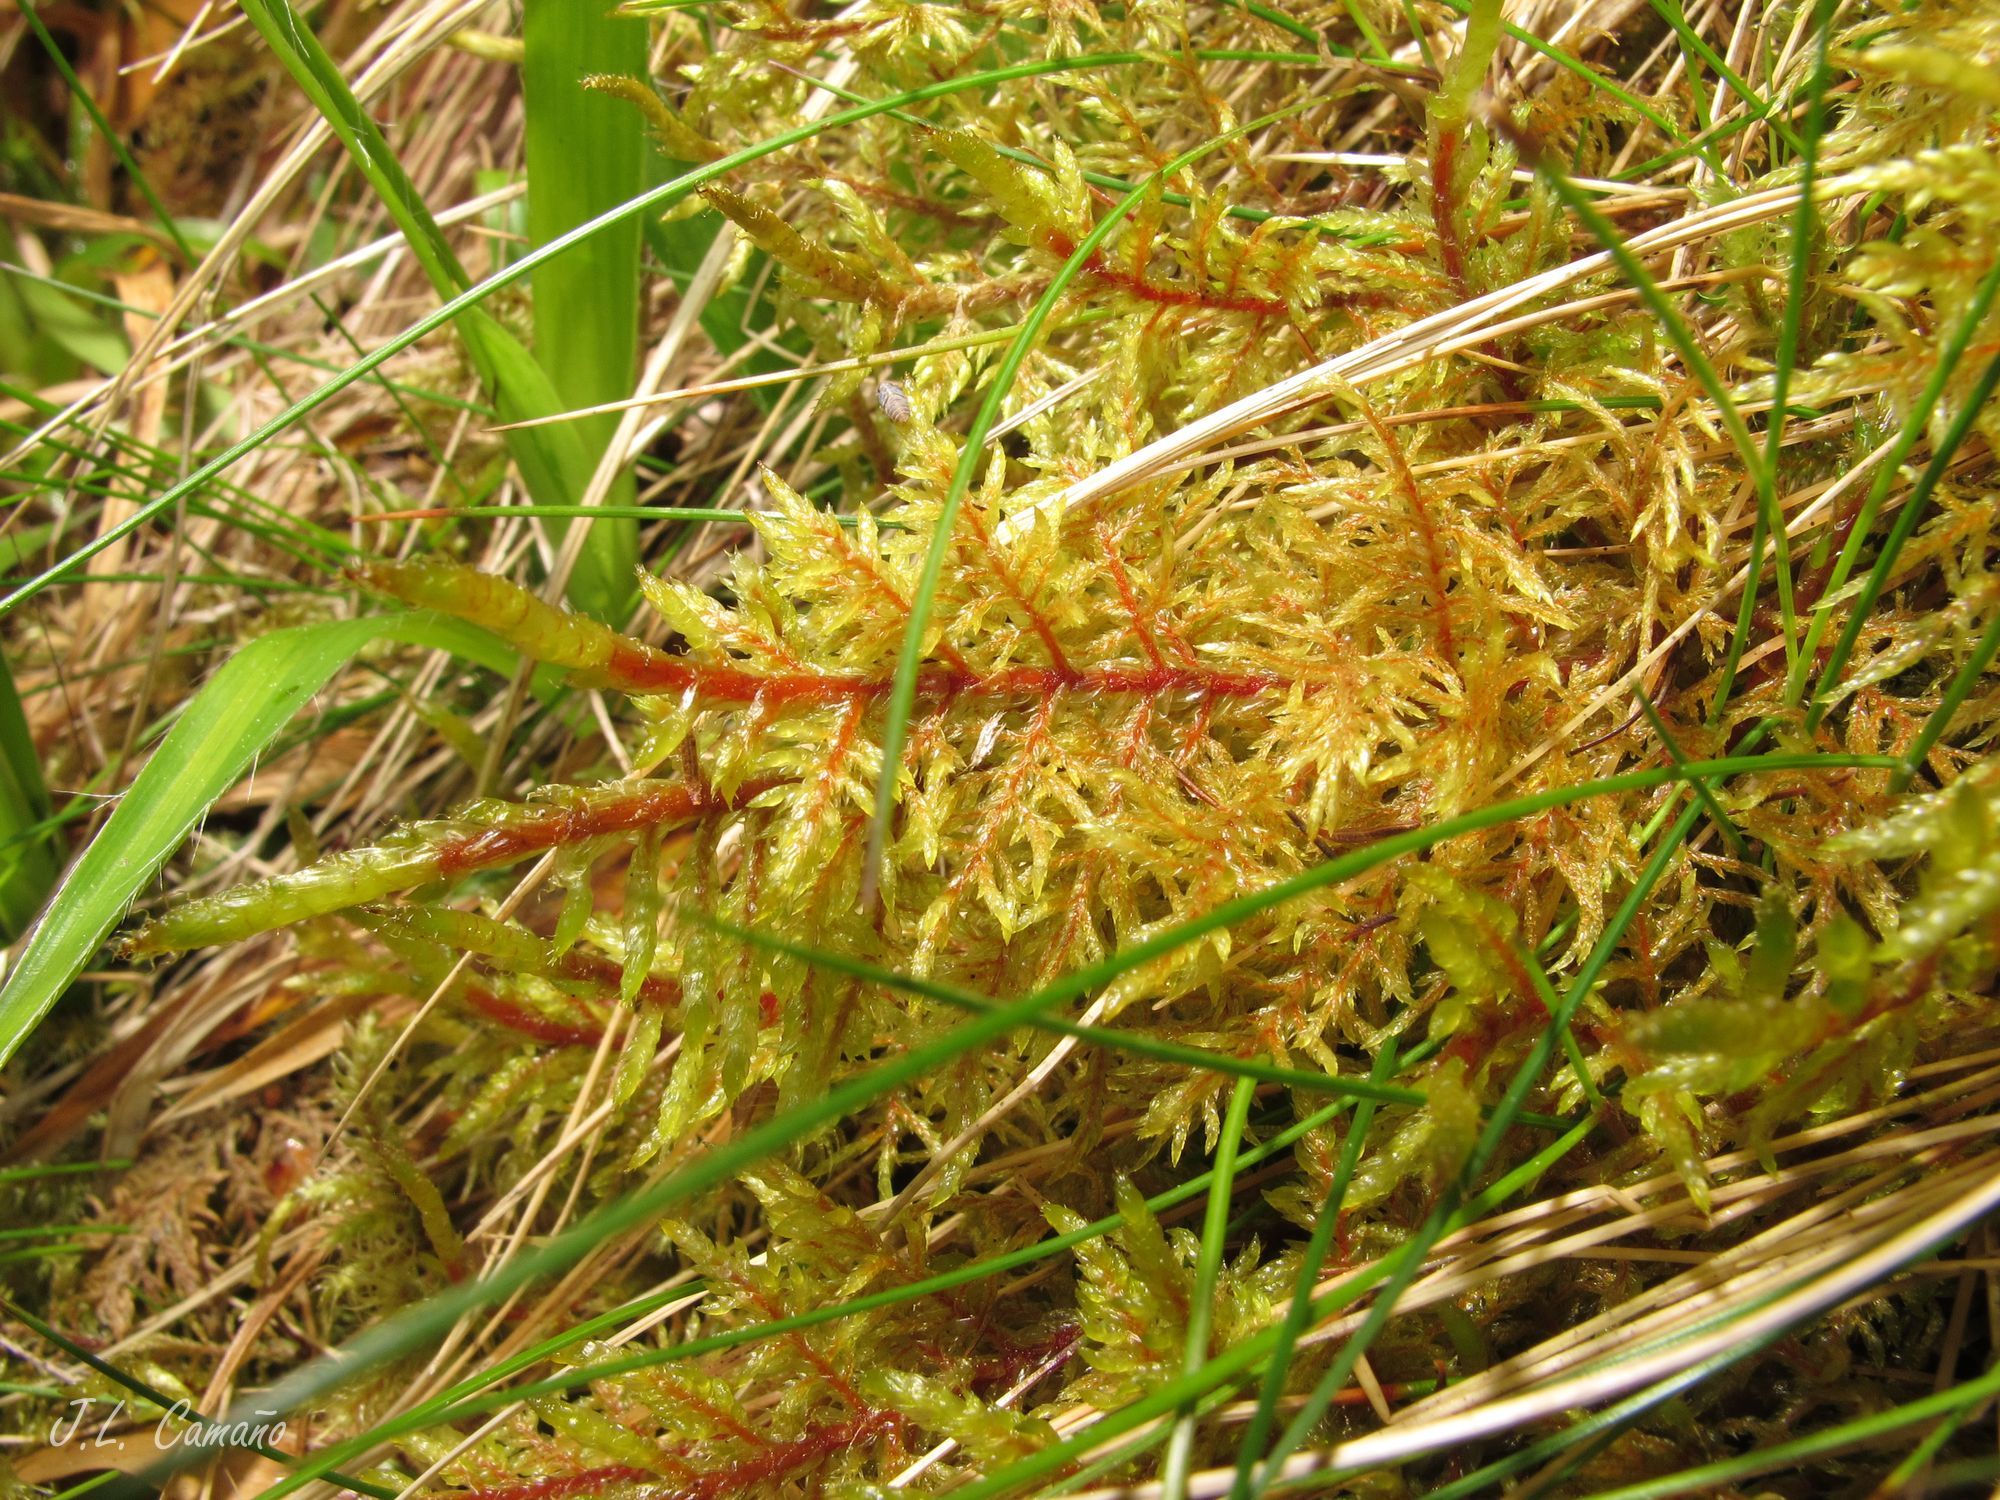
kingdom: Plantae
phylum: Bryophyta
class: Bryopsida
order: Hypnales
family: Hylocomiaceae
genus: Hylocomium
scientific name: Hylocomium splendens
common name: Stairstep moss
